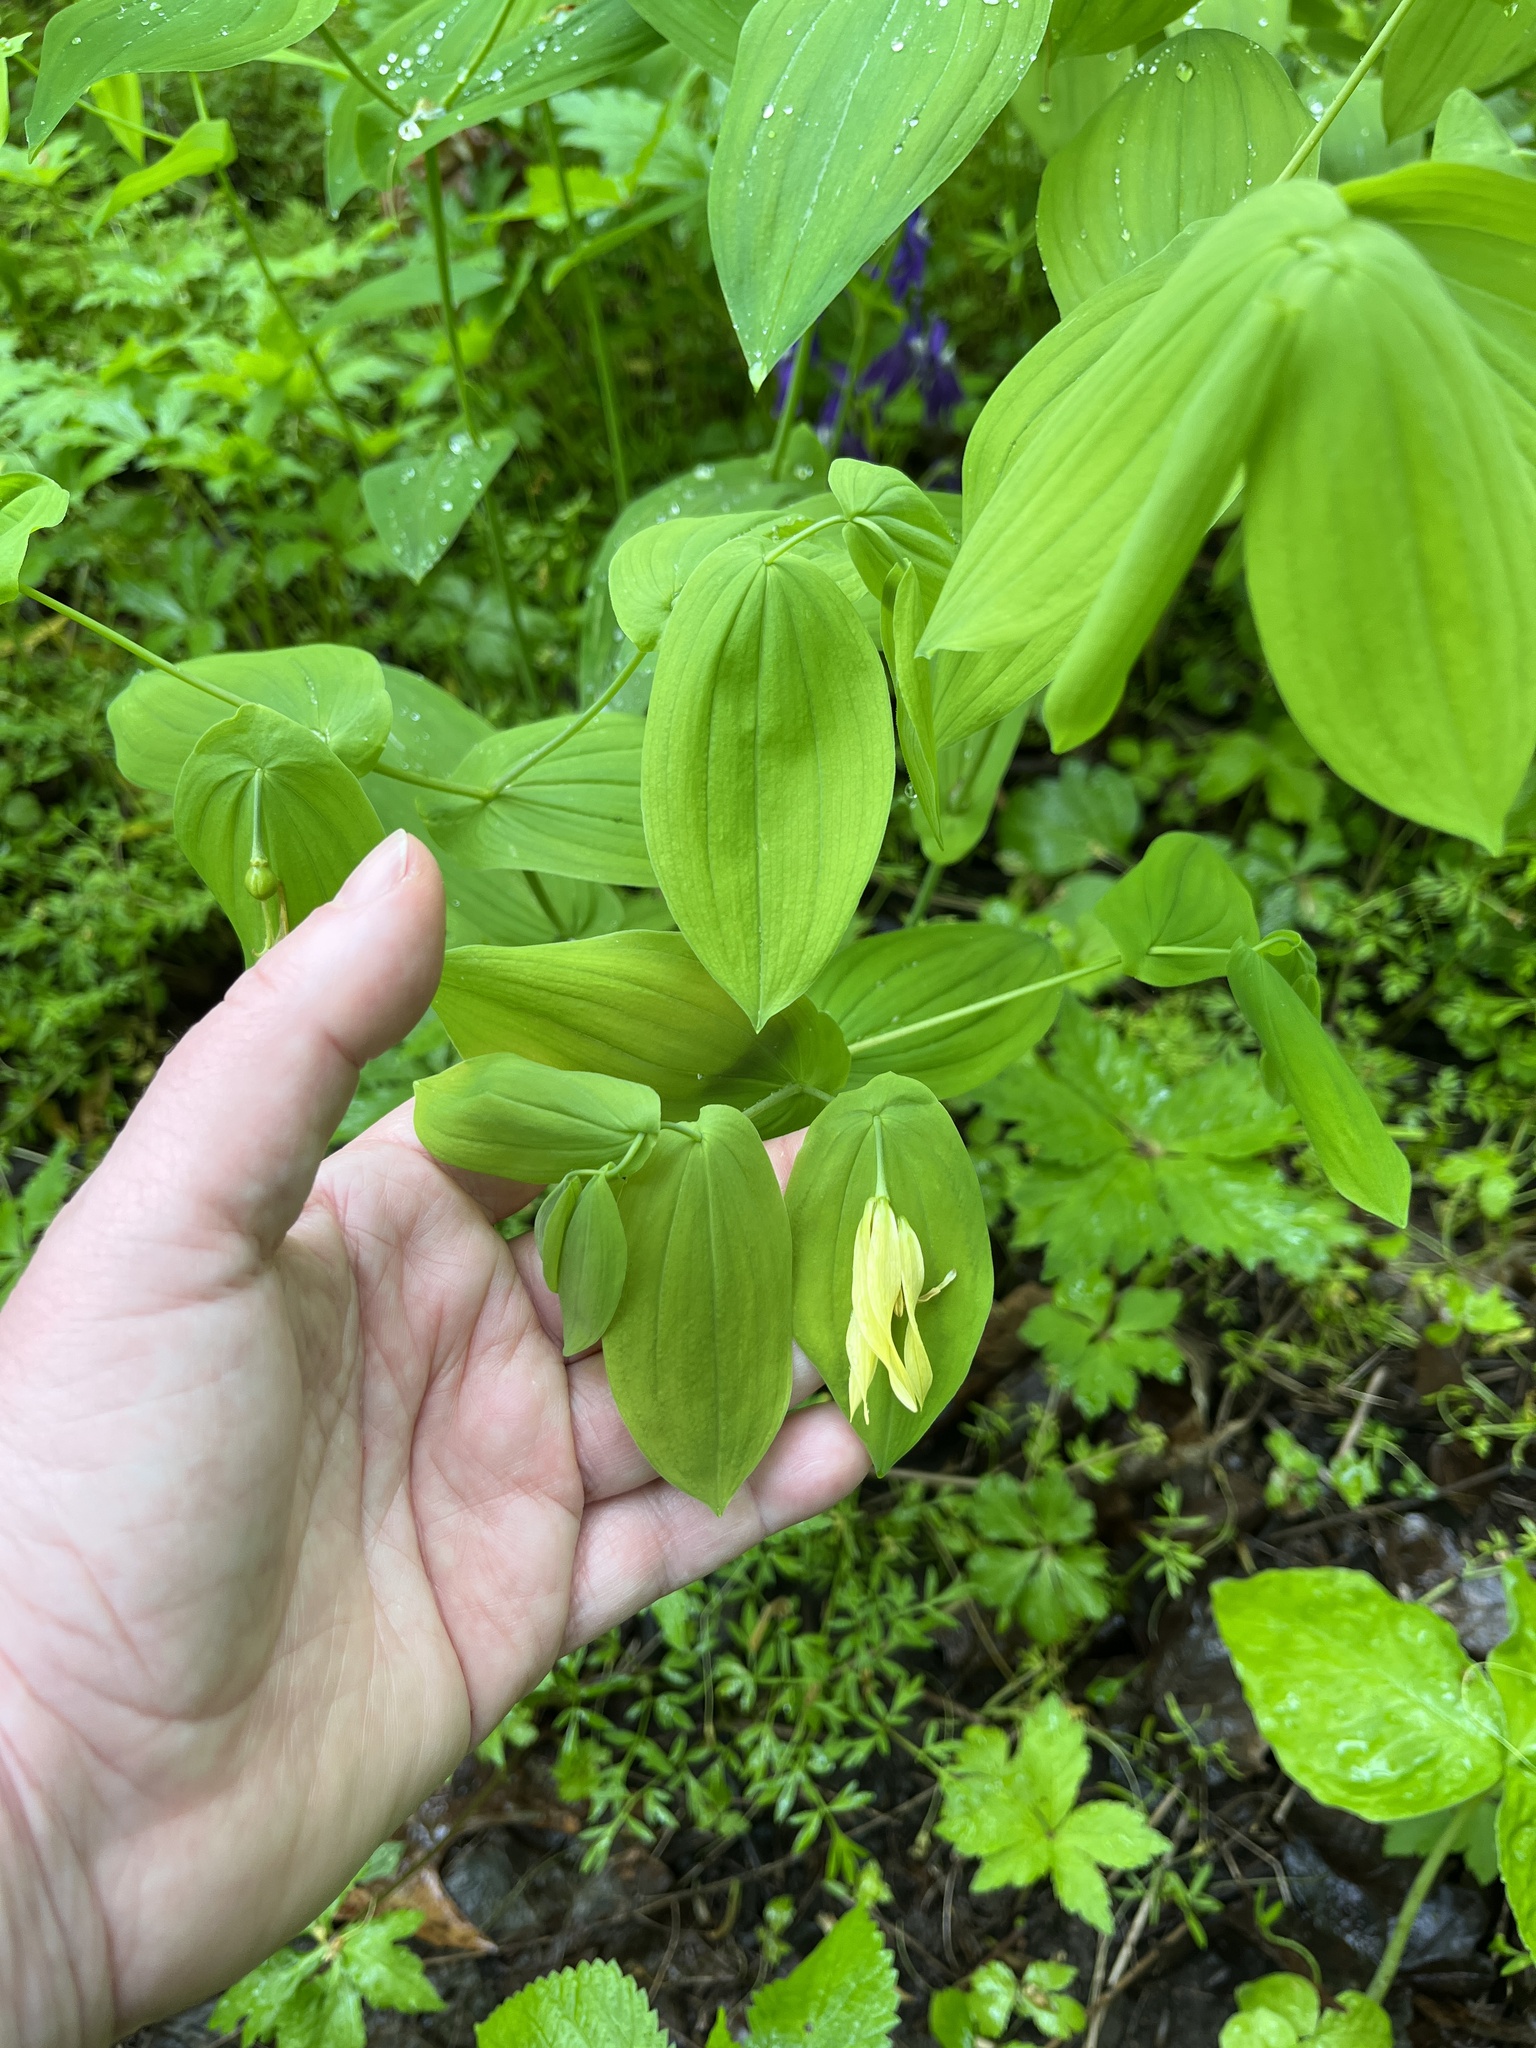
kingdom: Plantae
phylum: Tracheophyta
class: Liliopsida
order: Liliales
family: Colchicaceae
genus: Uvularia
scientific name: Uvularia grandiflora
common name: Bellwort
